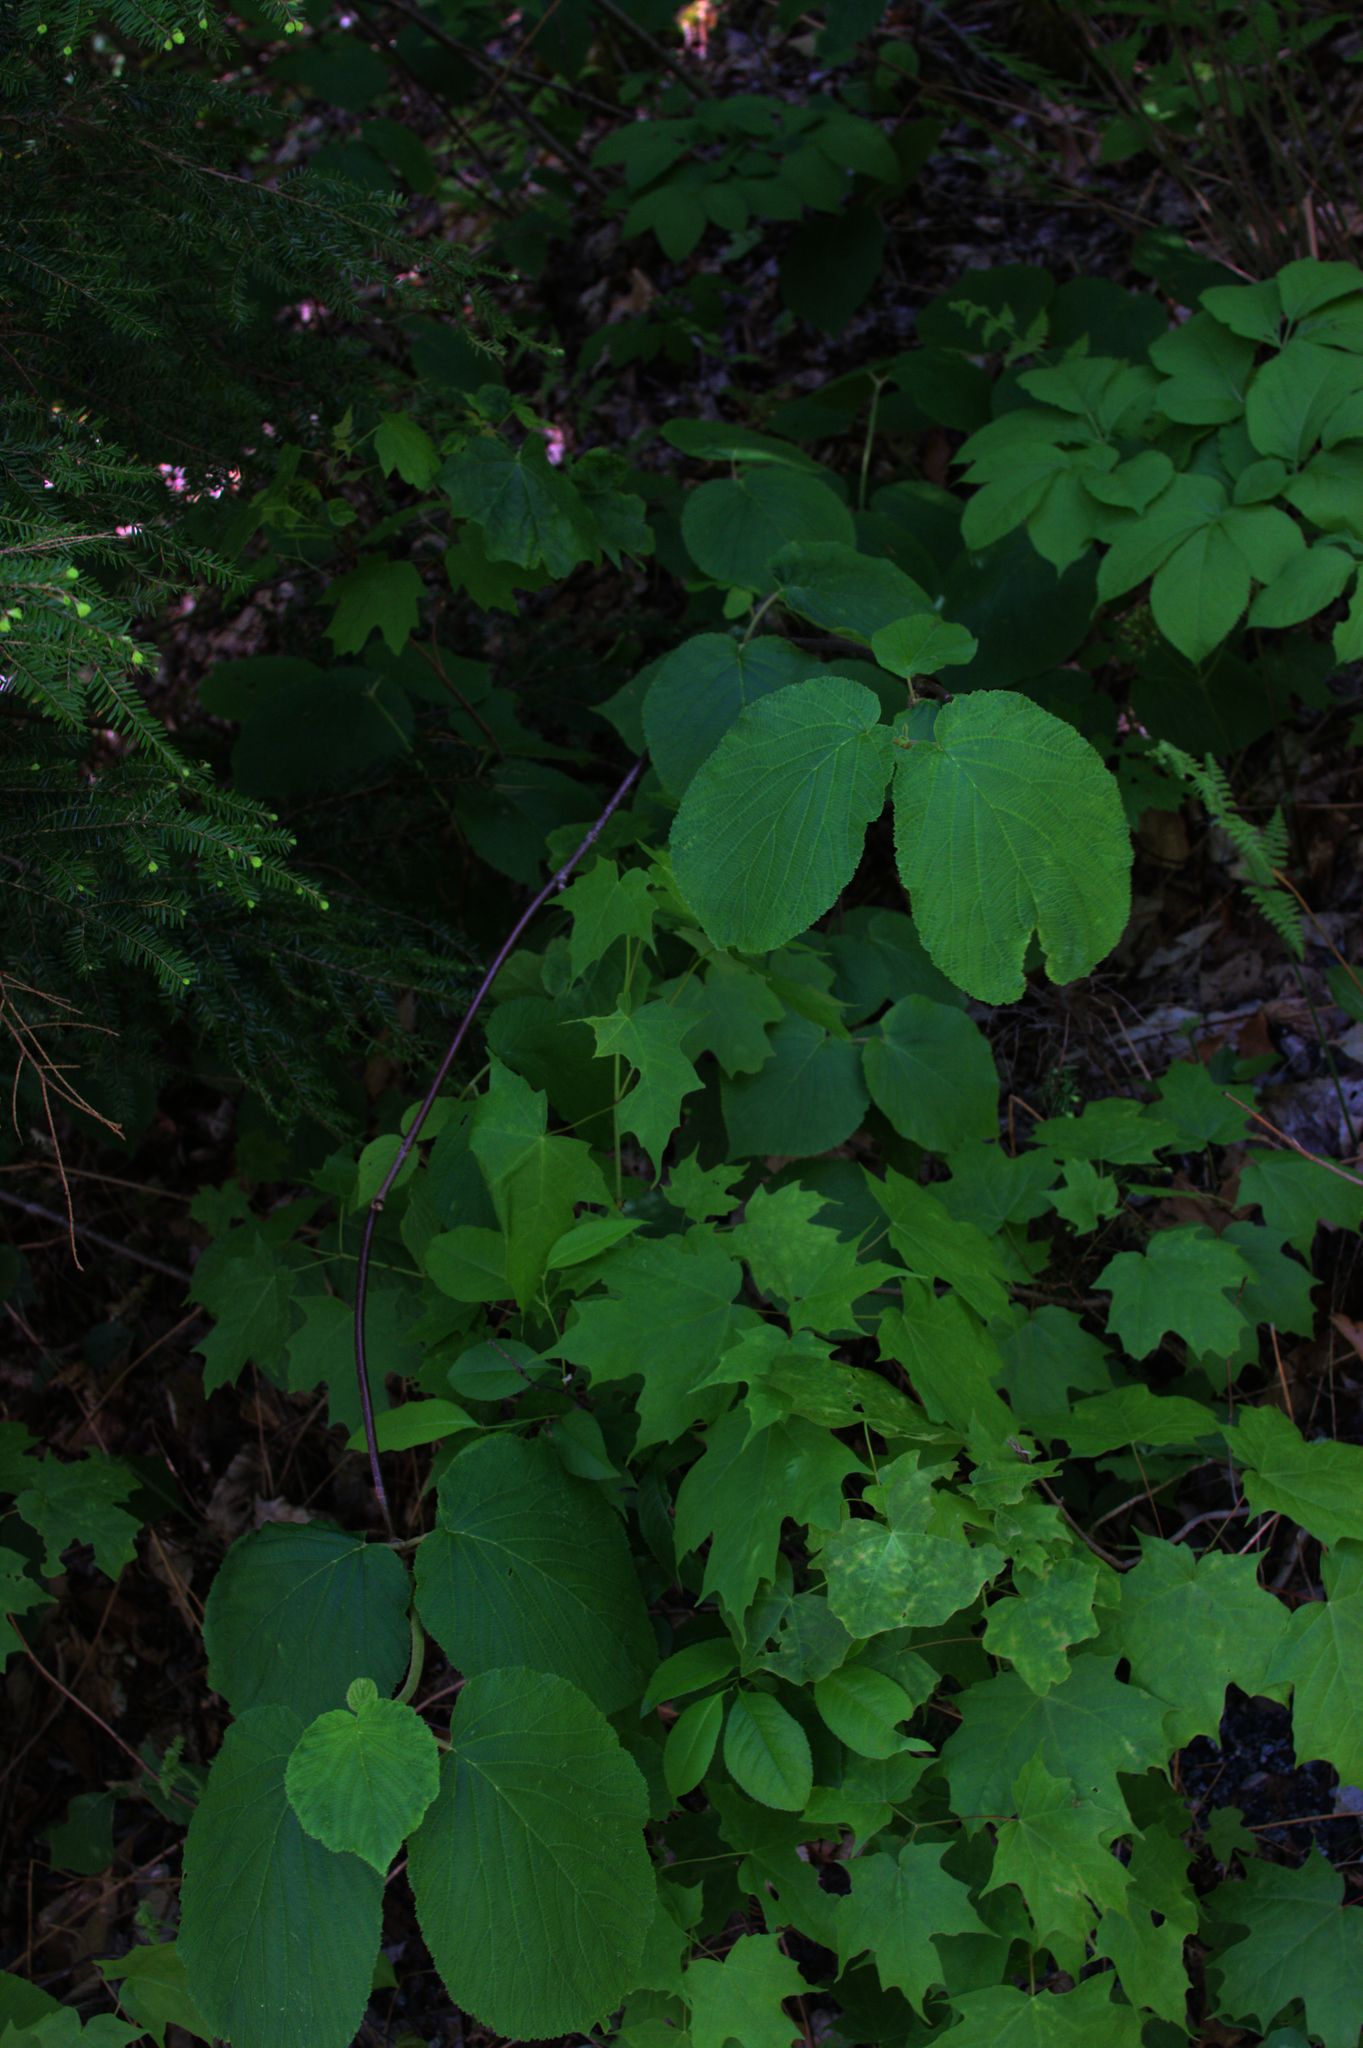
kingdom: Plantae
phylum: Tracheophyta
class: Magnoliopsida
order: Dipsacales
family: Viburnaceae
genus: Viburnum
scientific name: Viburnum lantanoides
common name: Hobblebush
